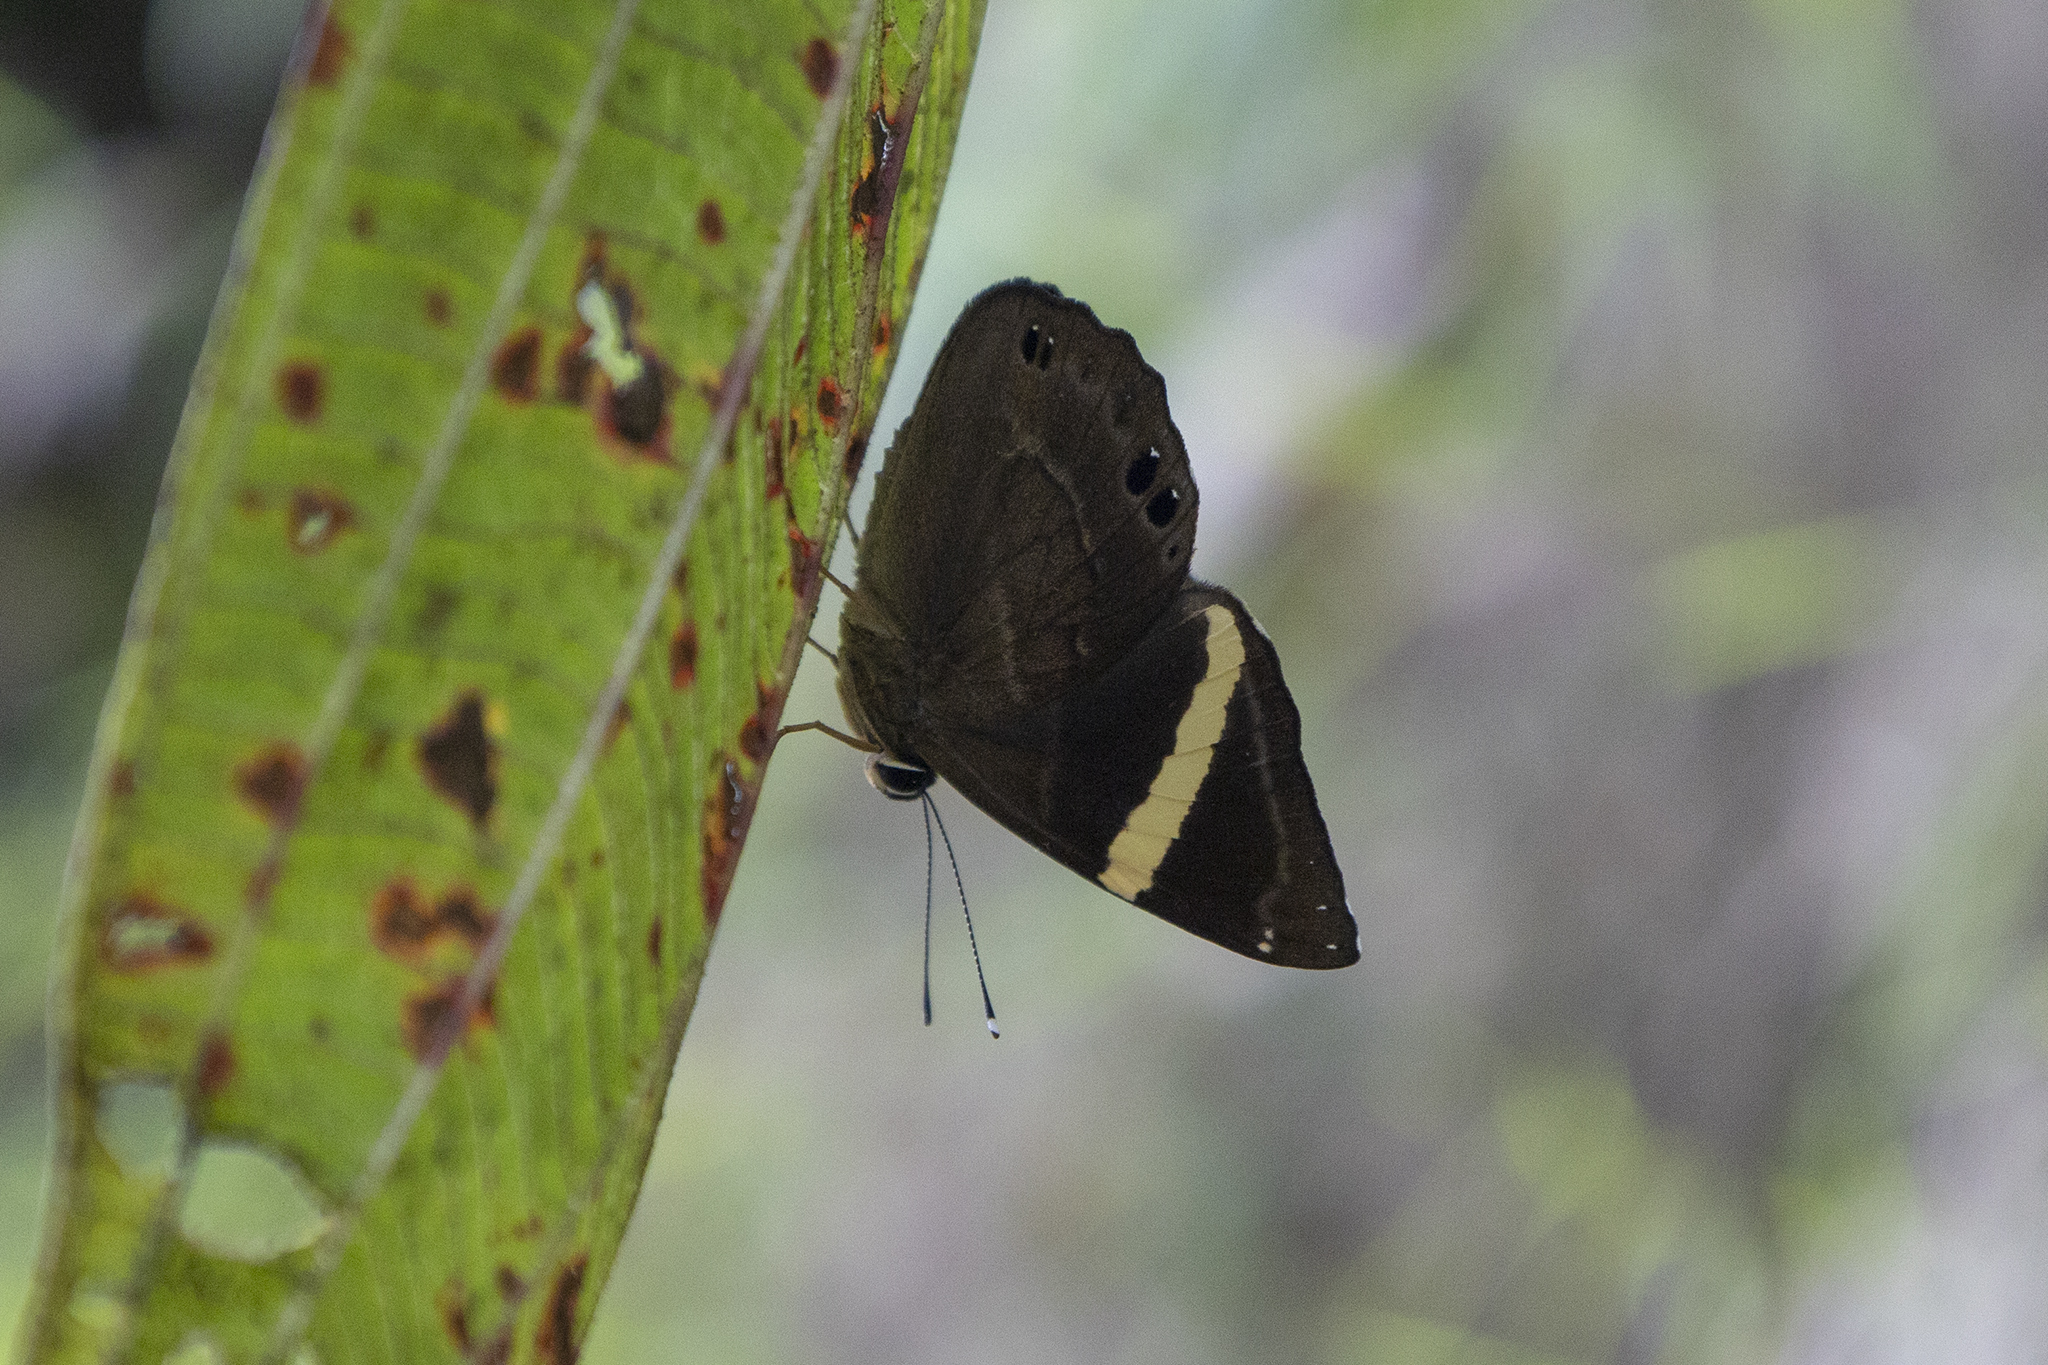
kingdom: Animalia
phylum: Arthropoda
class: Insecta
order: Lepidoptera
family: Lycaenidae
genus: Abisara
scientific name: Abisara fylla
